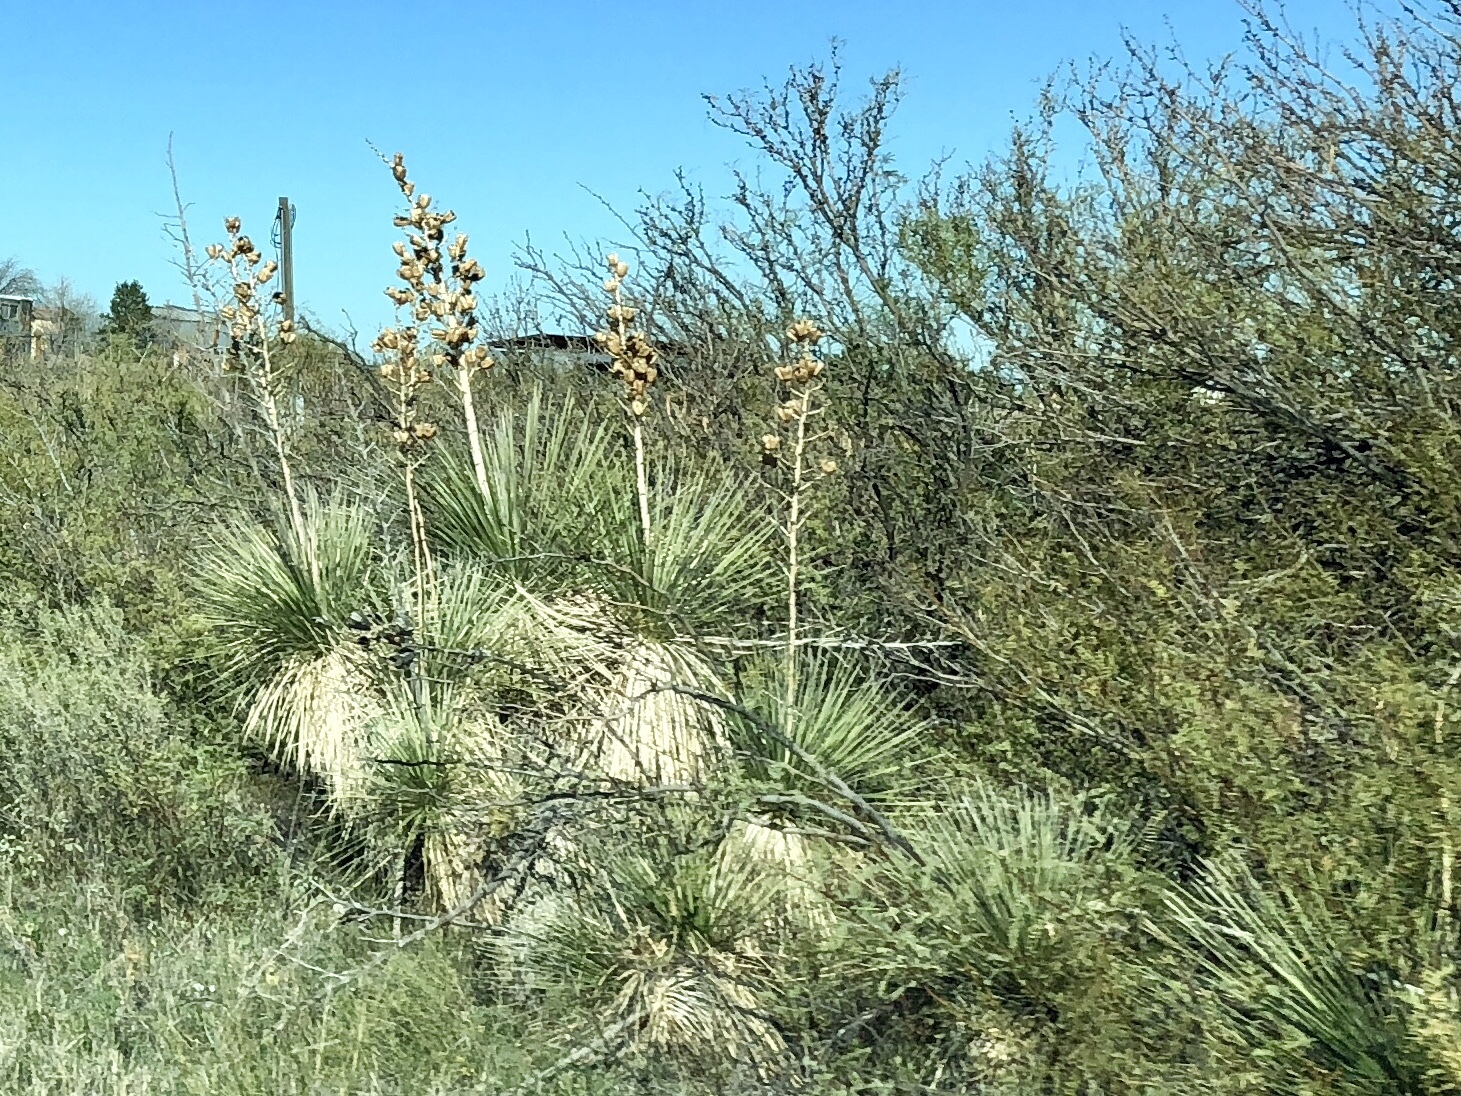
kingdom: Plantae
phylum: Tracheophyta
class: Liliopsida
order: Asparagales
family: Asparagaceae
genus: Yucca
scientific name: Yucca elata
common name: Palmella
